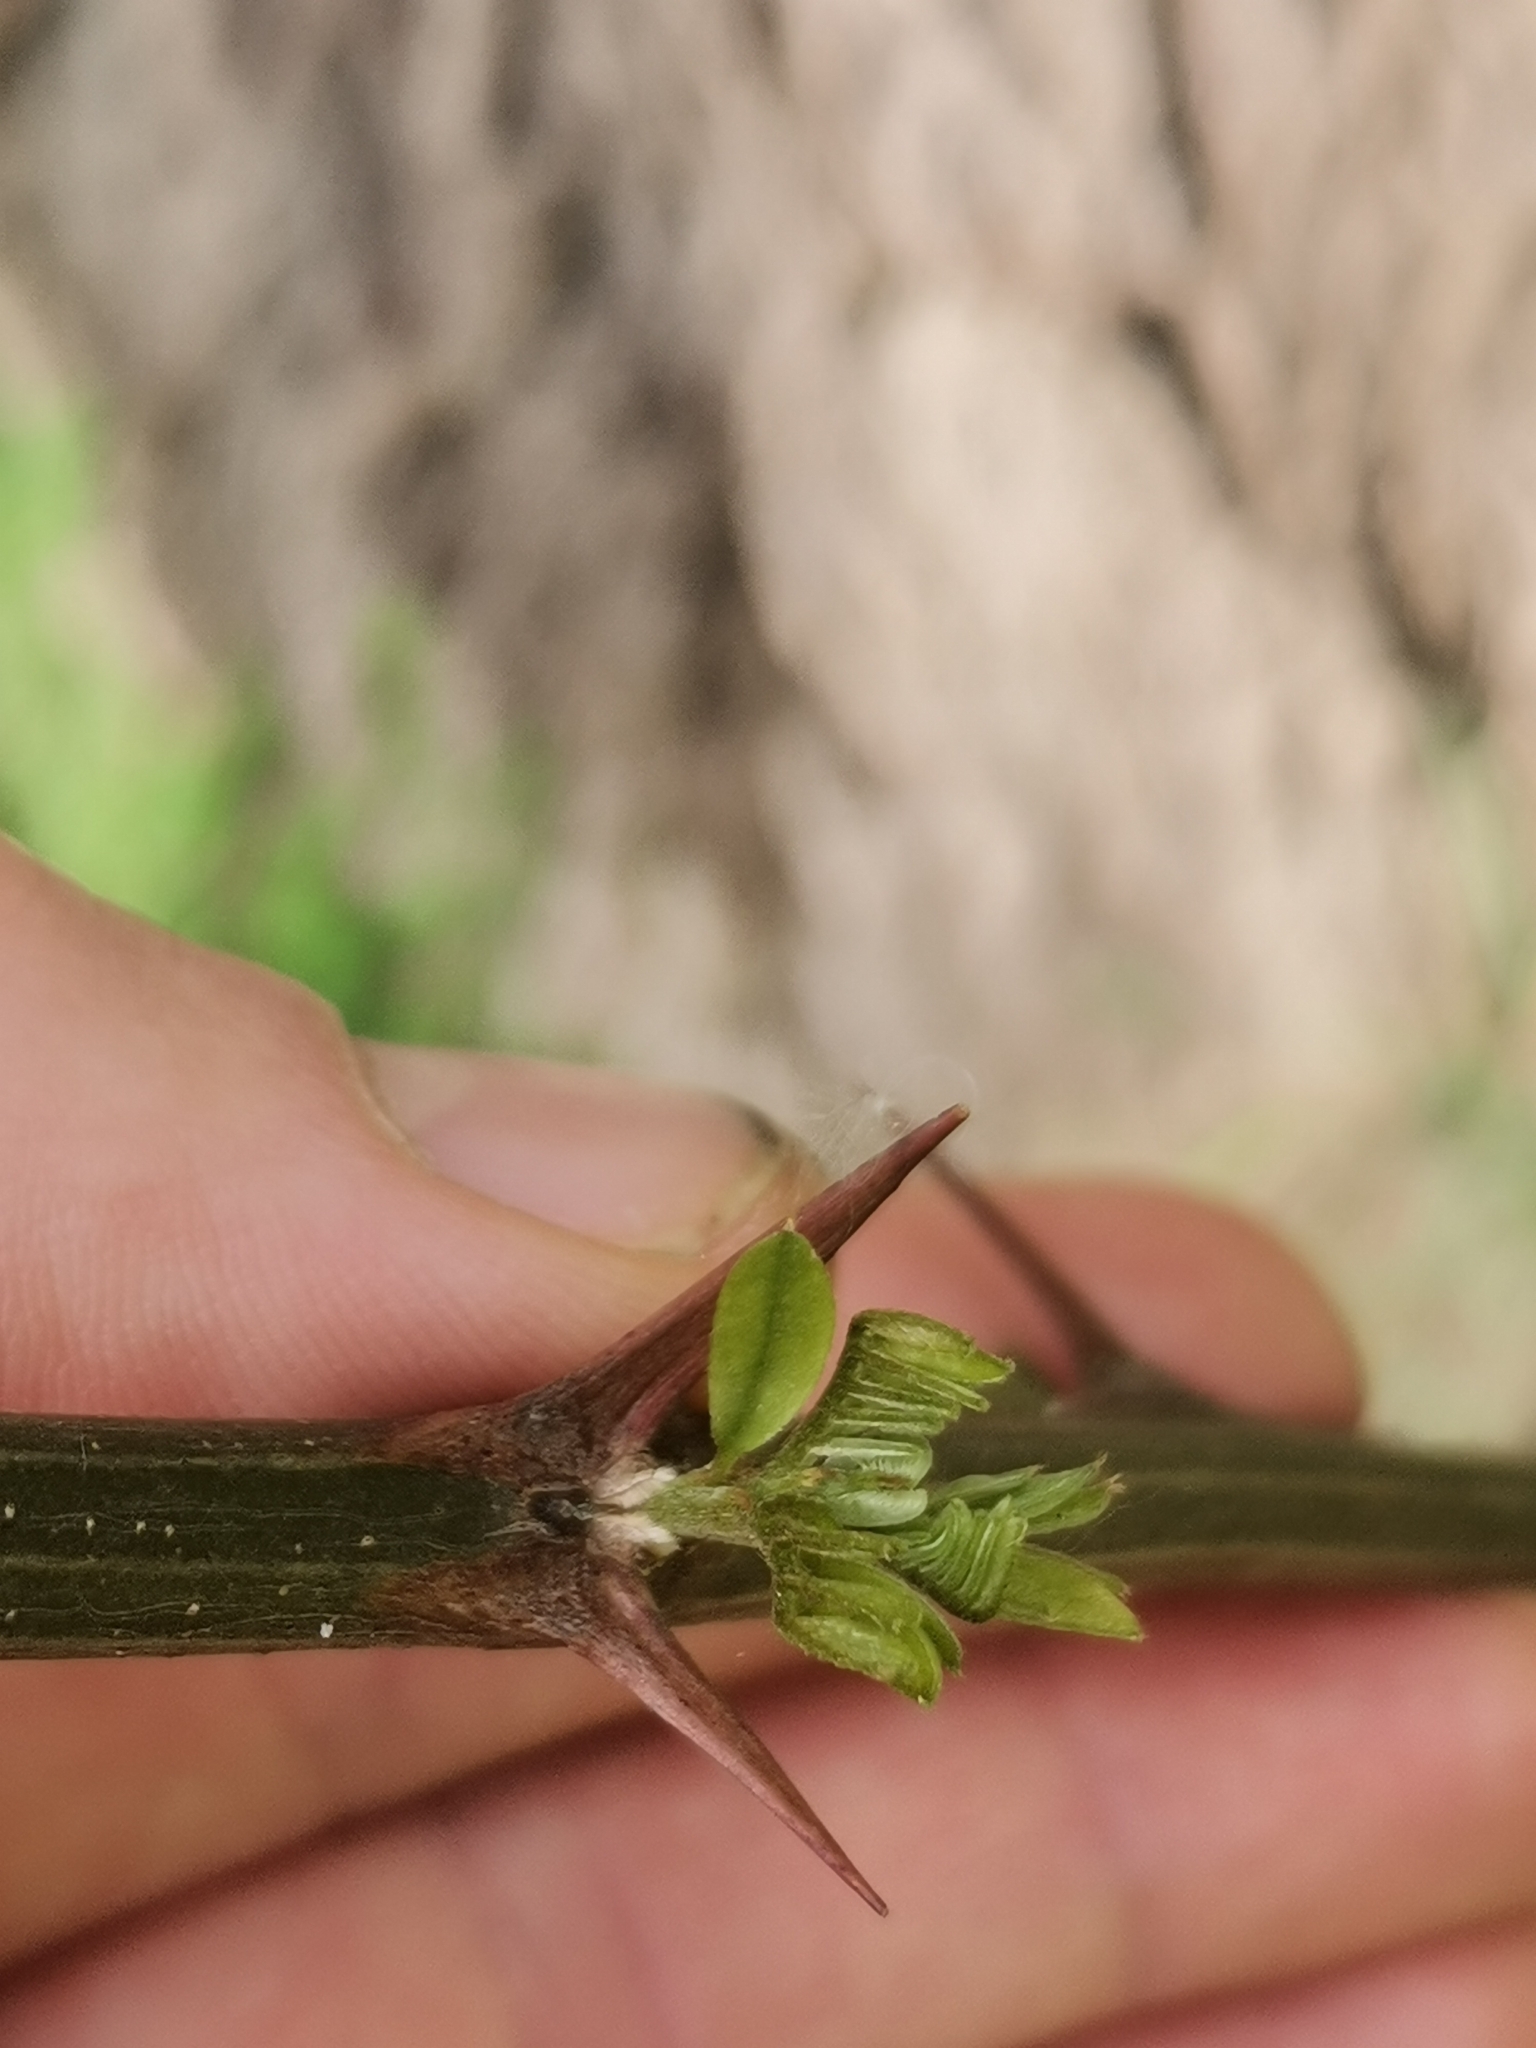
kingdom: Plantae
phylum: Tracheophyta
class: Magnoliopsida
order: Fabales
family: Fabaceae
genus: Robinia
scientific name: Robinia pseudoacacia
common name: Black locust
